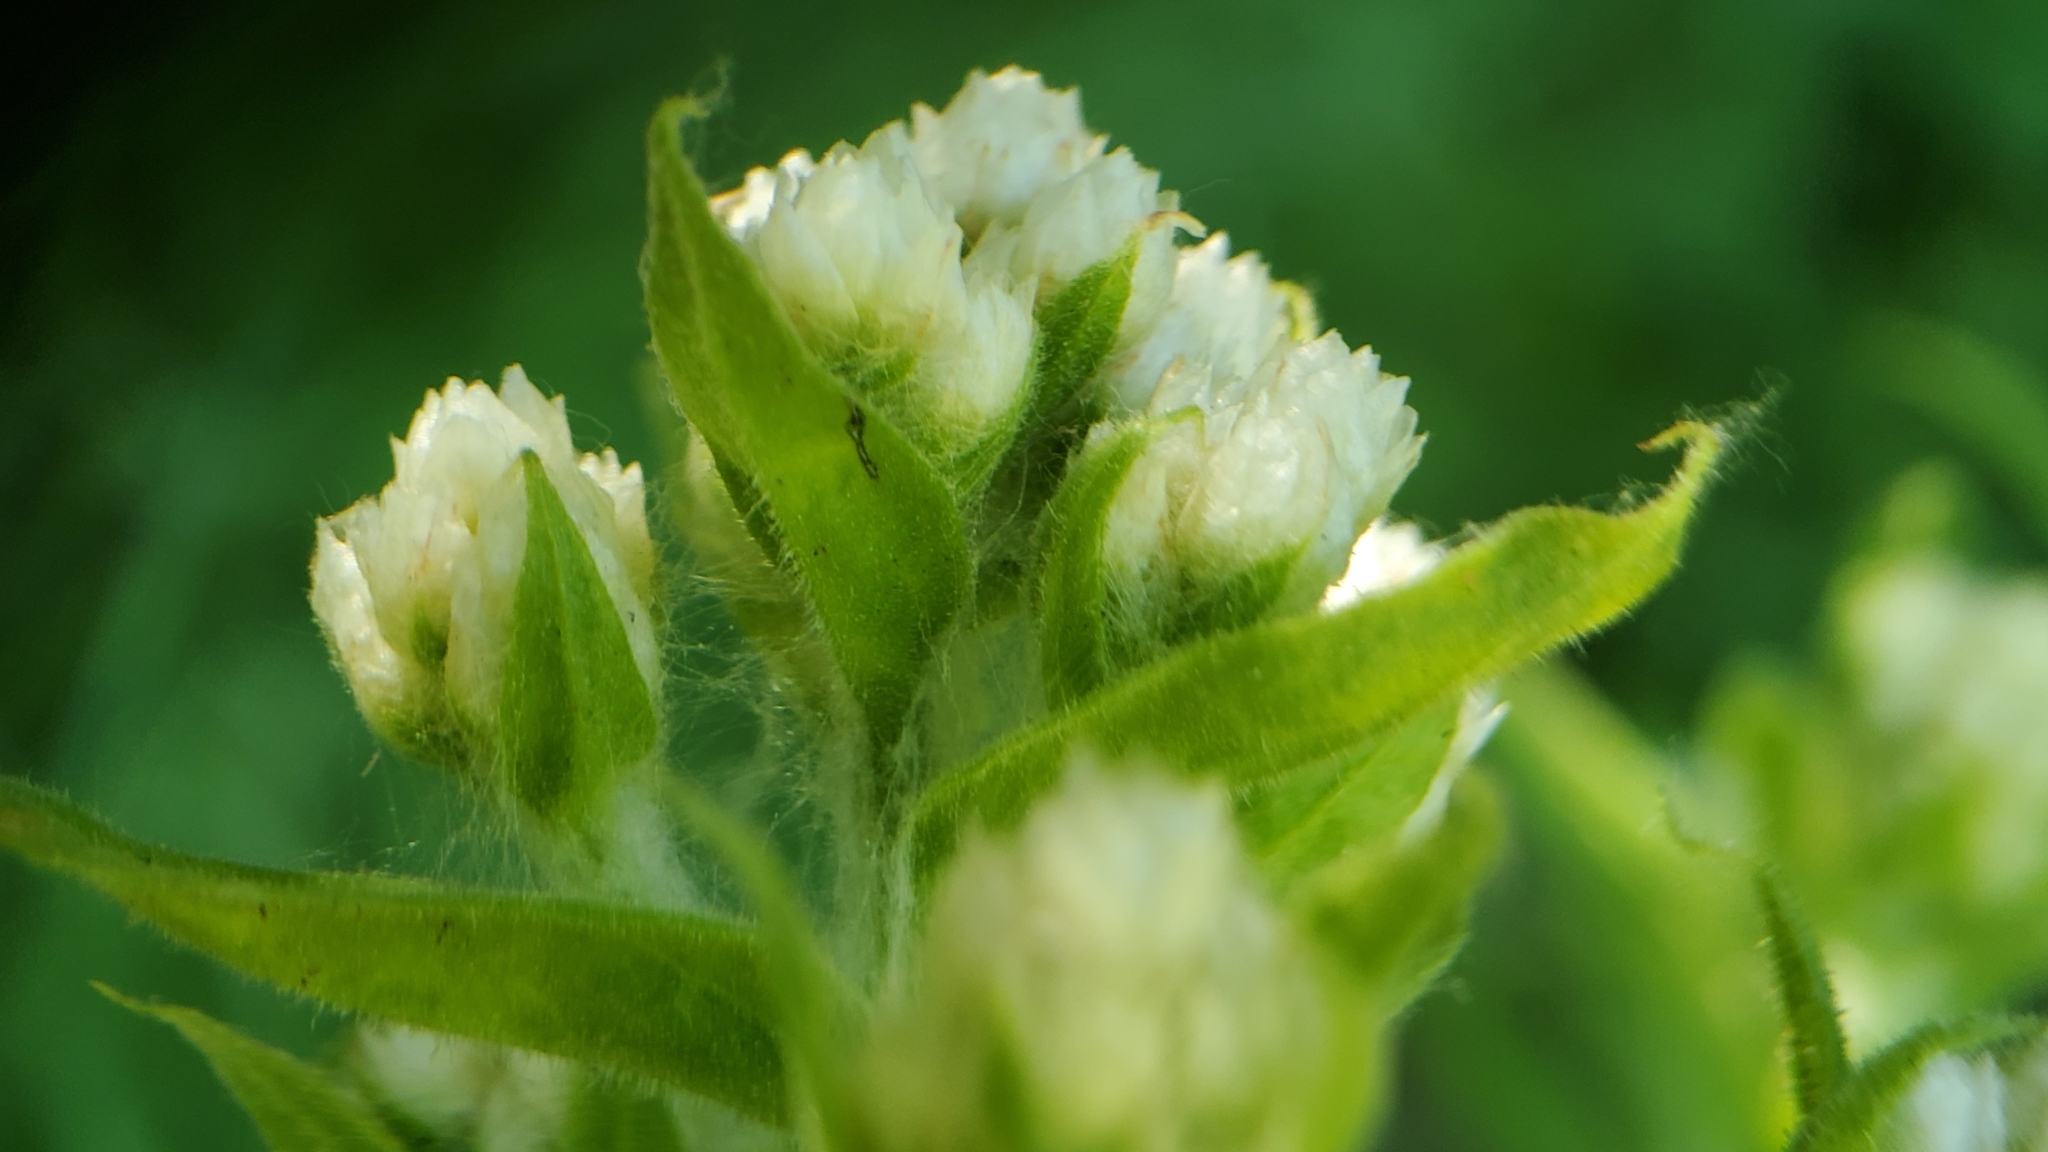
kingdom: Plantae
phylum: Tracheophyta
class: Magnoliopsida
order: Asterales
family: Asteraceae
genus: Pseudognaphalium
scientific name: Pseudognaphalium californicum
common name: California rabbit-tobacco
